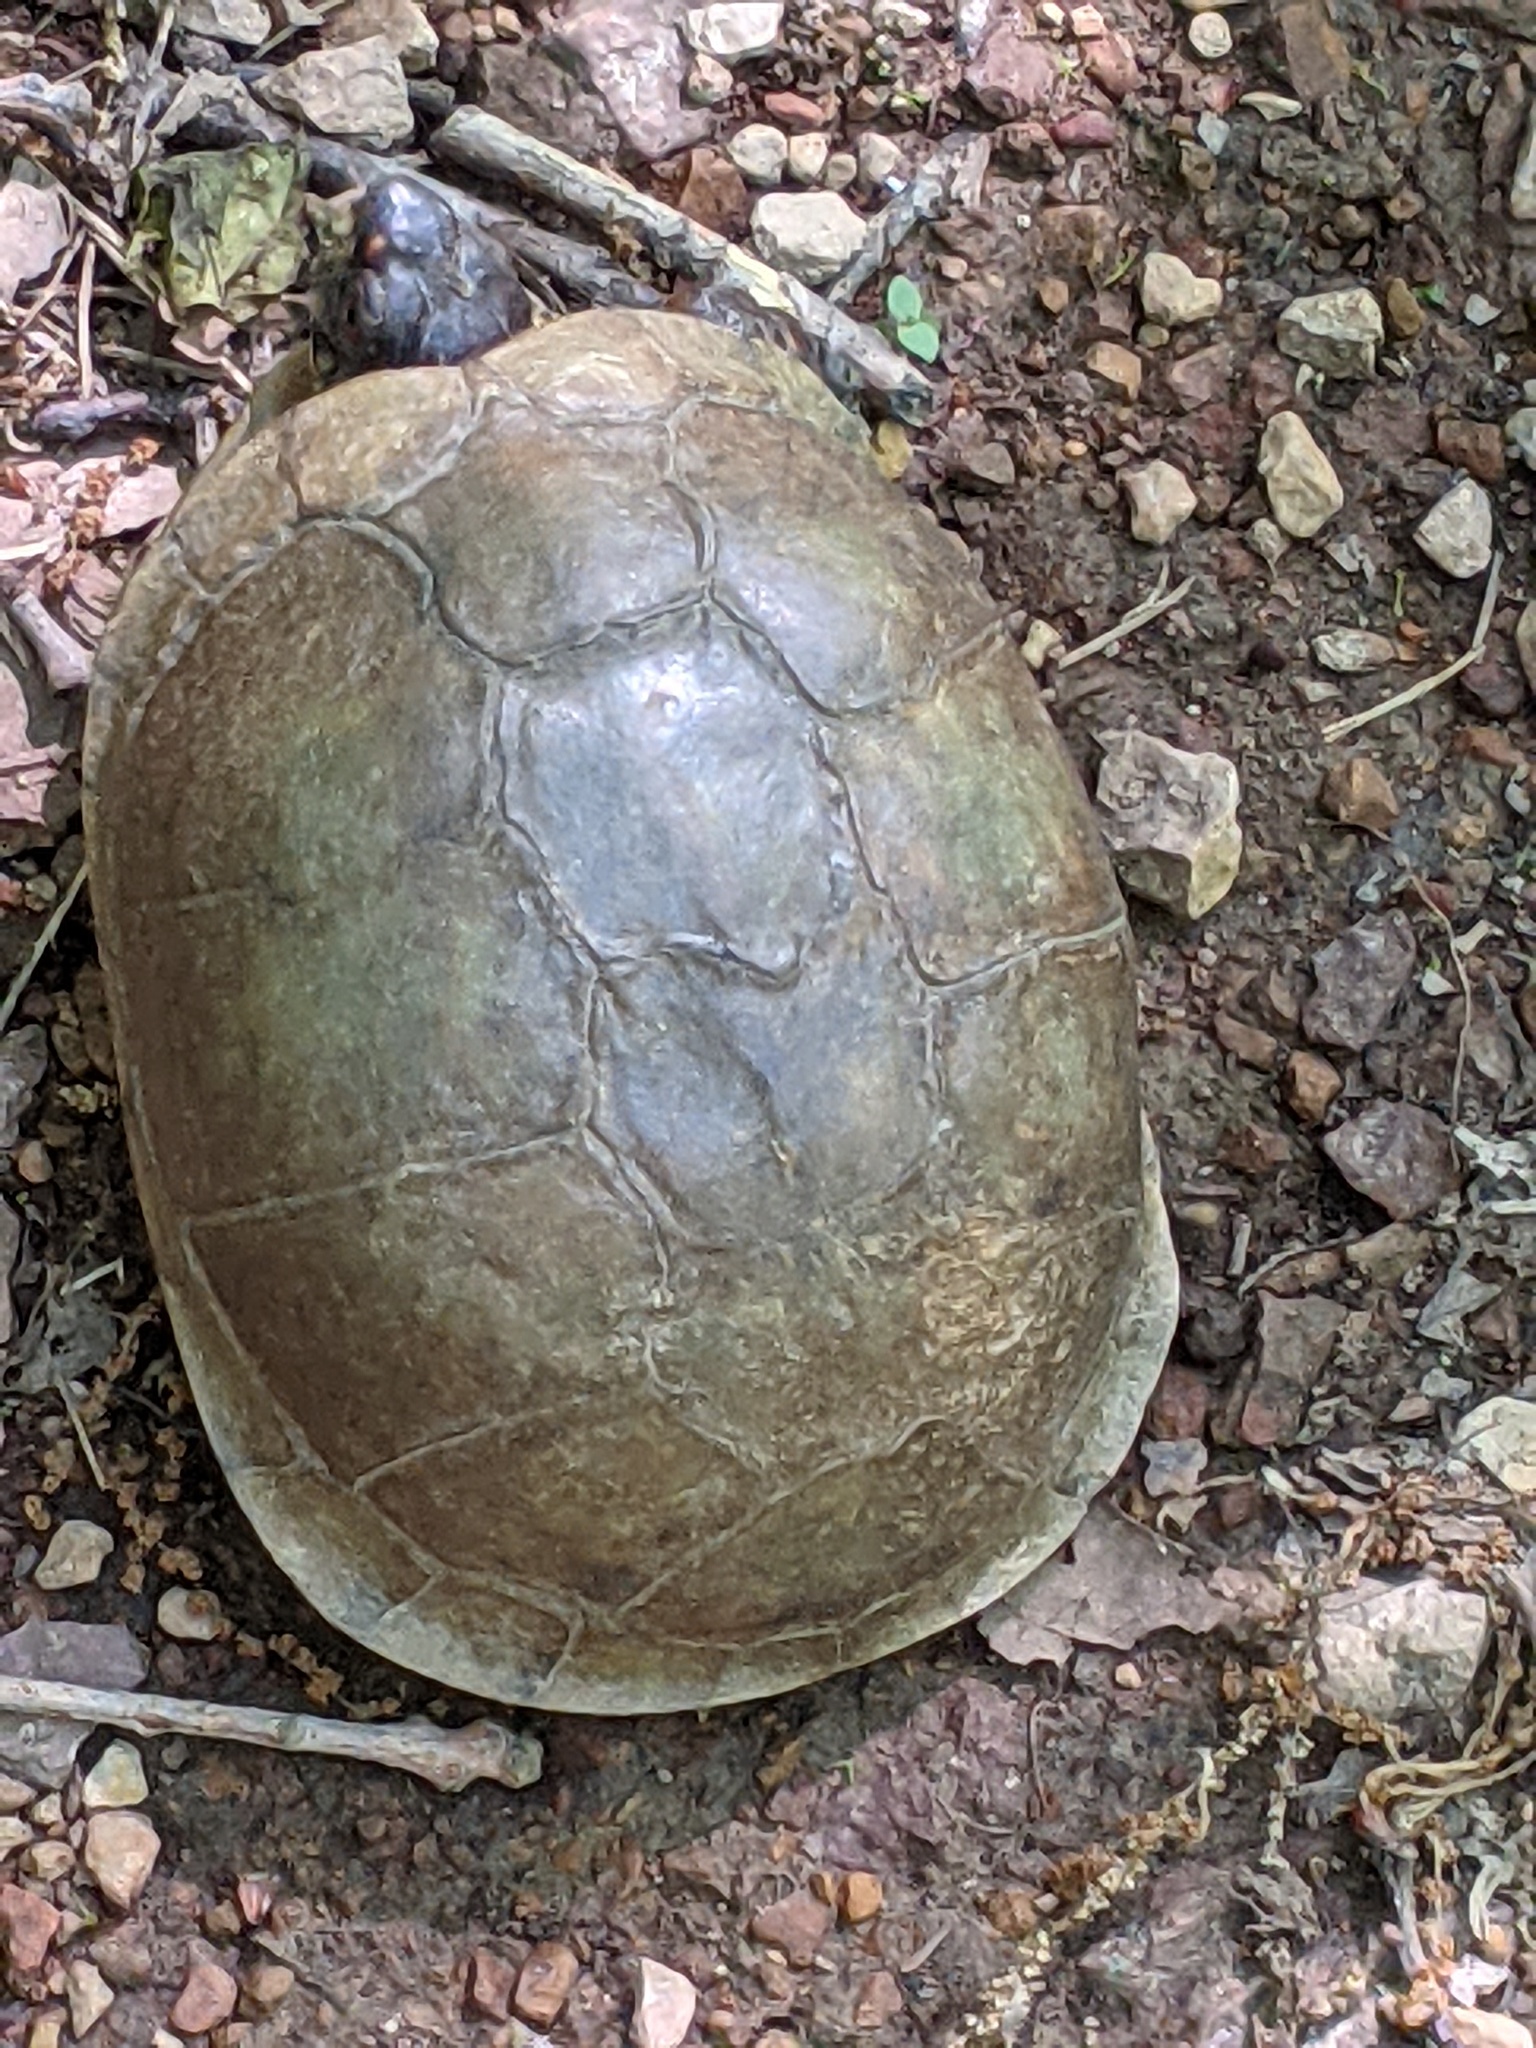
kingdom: Animalia
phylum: Chordata
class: Testudines
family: Emydidae
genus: Terrapene
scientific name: Terrapene carolina
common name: Common box turtle
